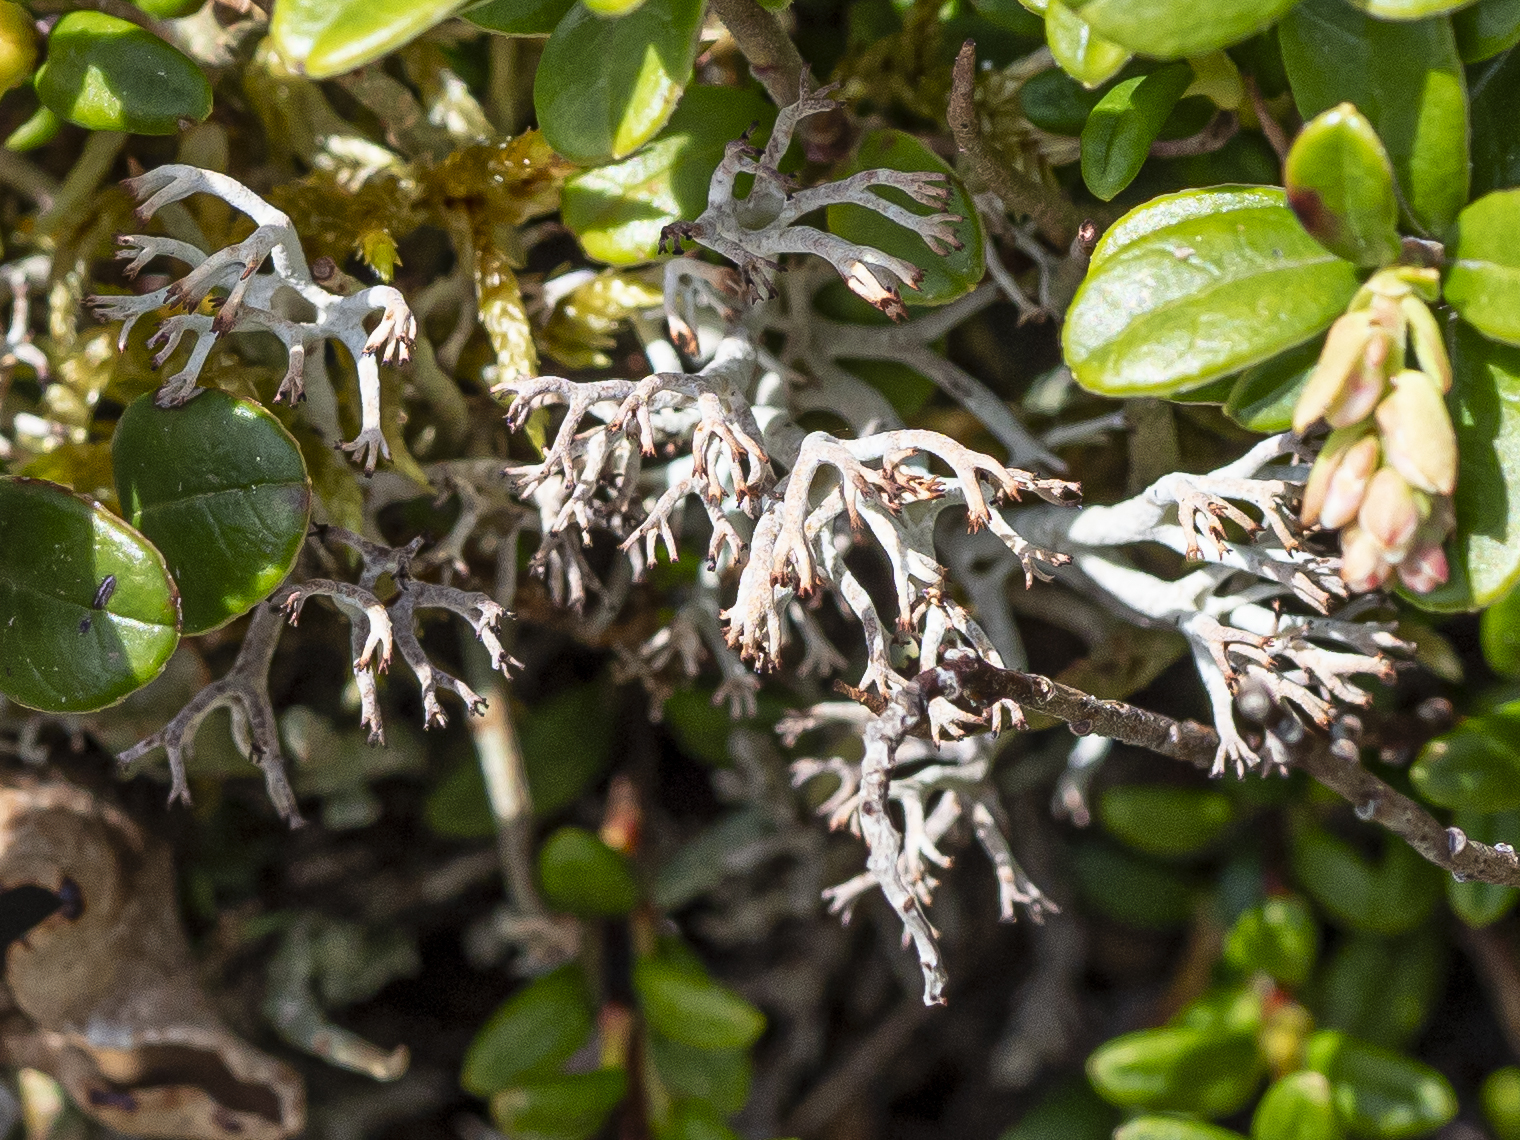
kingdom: Fungi
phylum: Ascomycota
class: Lecanoromycetes
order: Lecanorales
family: Cladoniaceae
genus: Cladonia
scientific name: Cladonia rangiferina
